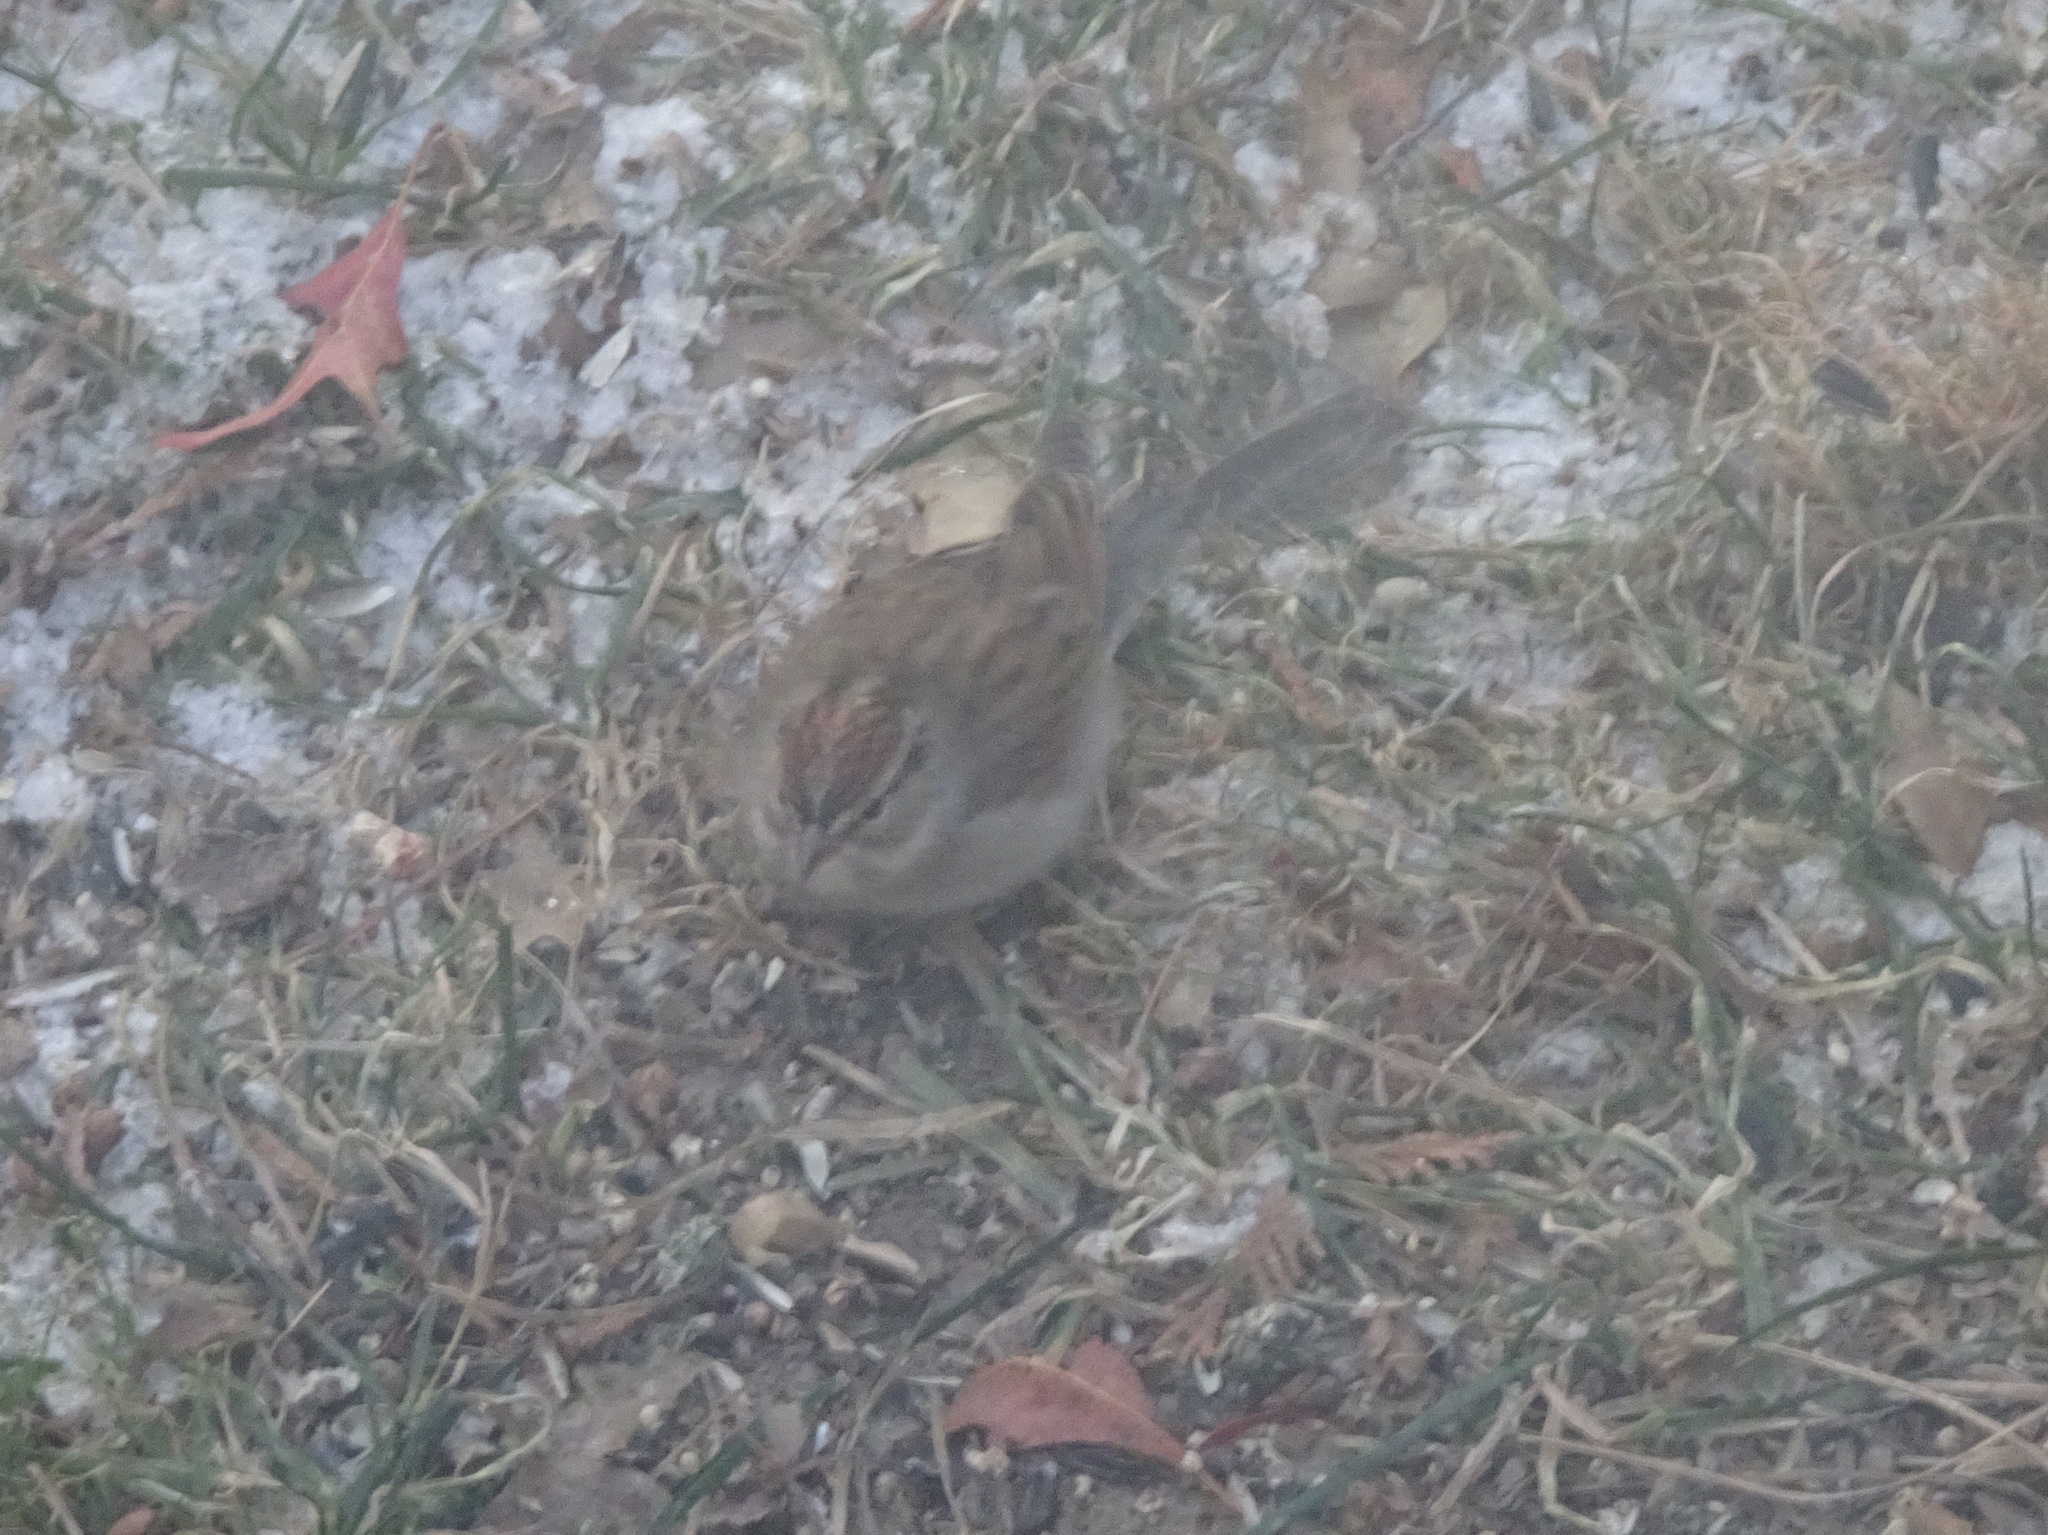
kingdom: Animalia
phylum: Chordata
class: Aves
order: Passeriformes
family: Passerellidae
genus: Spizella
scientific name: Spizella passerina
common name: Chipping sparrow
